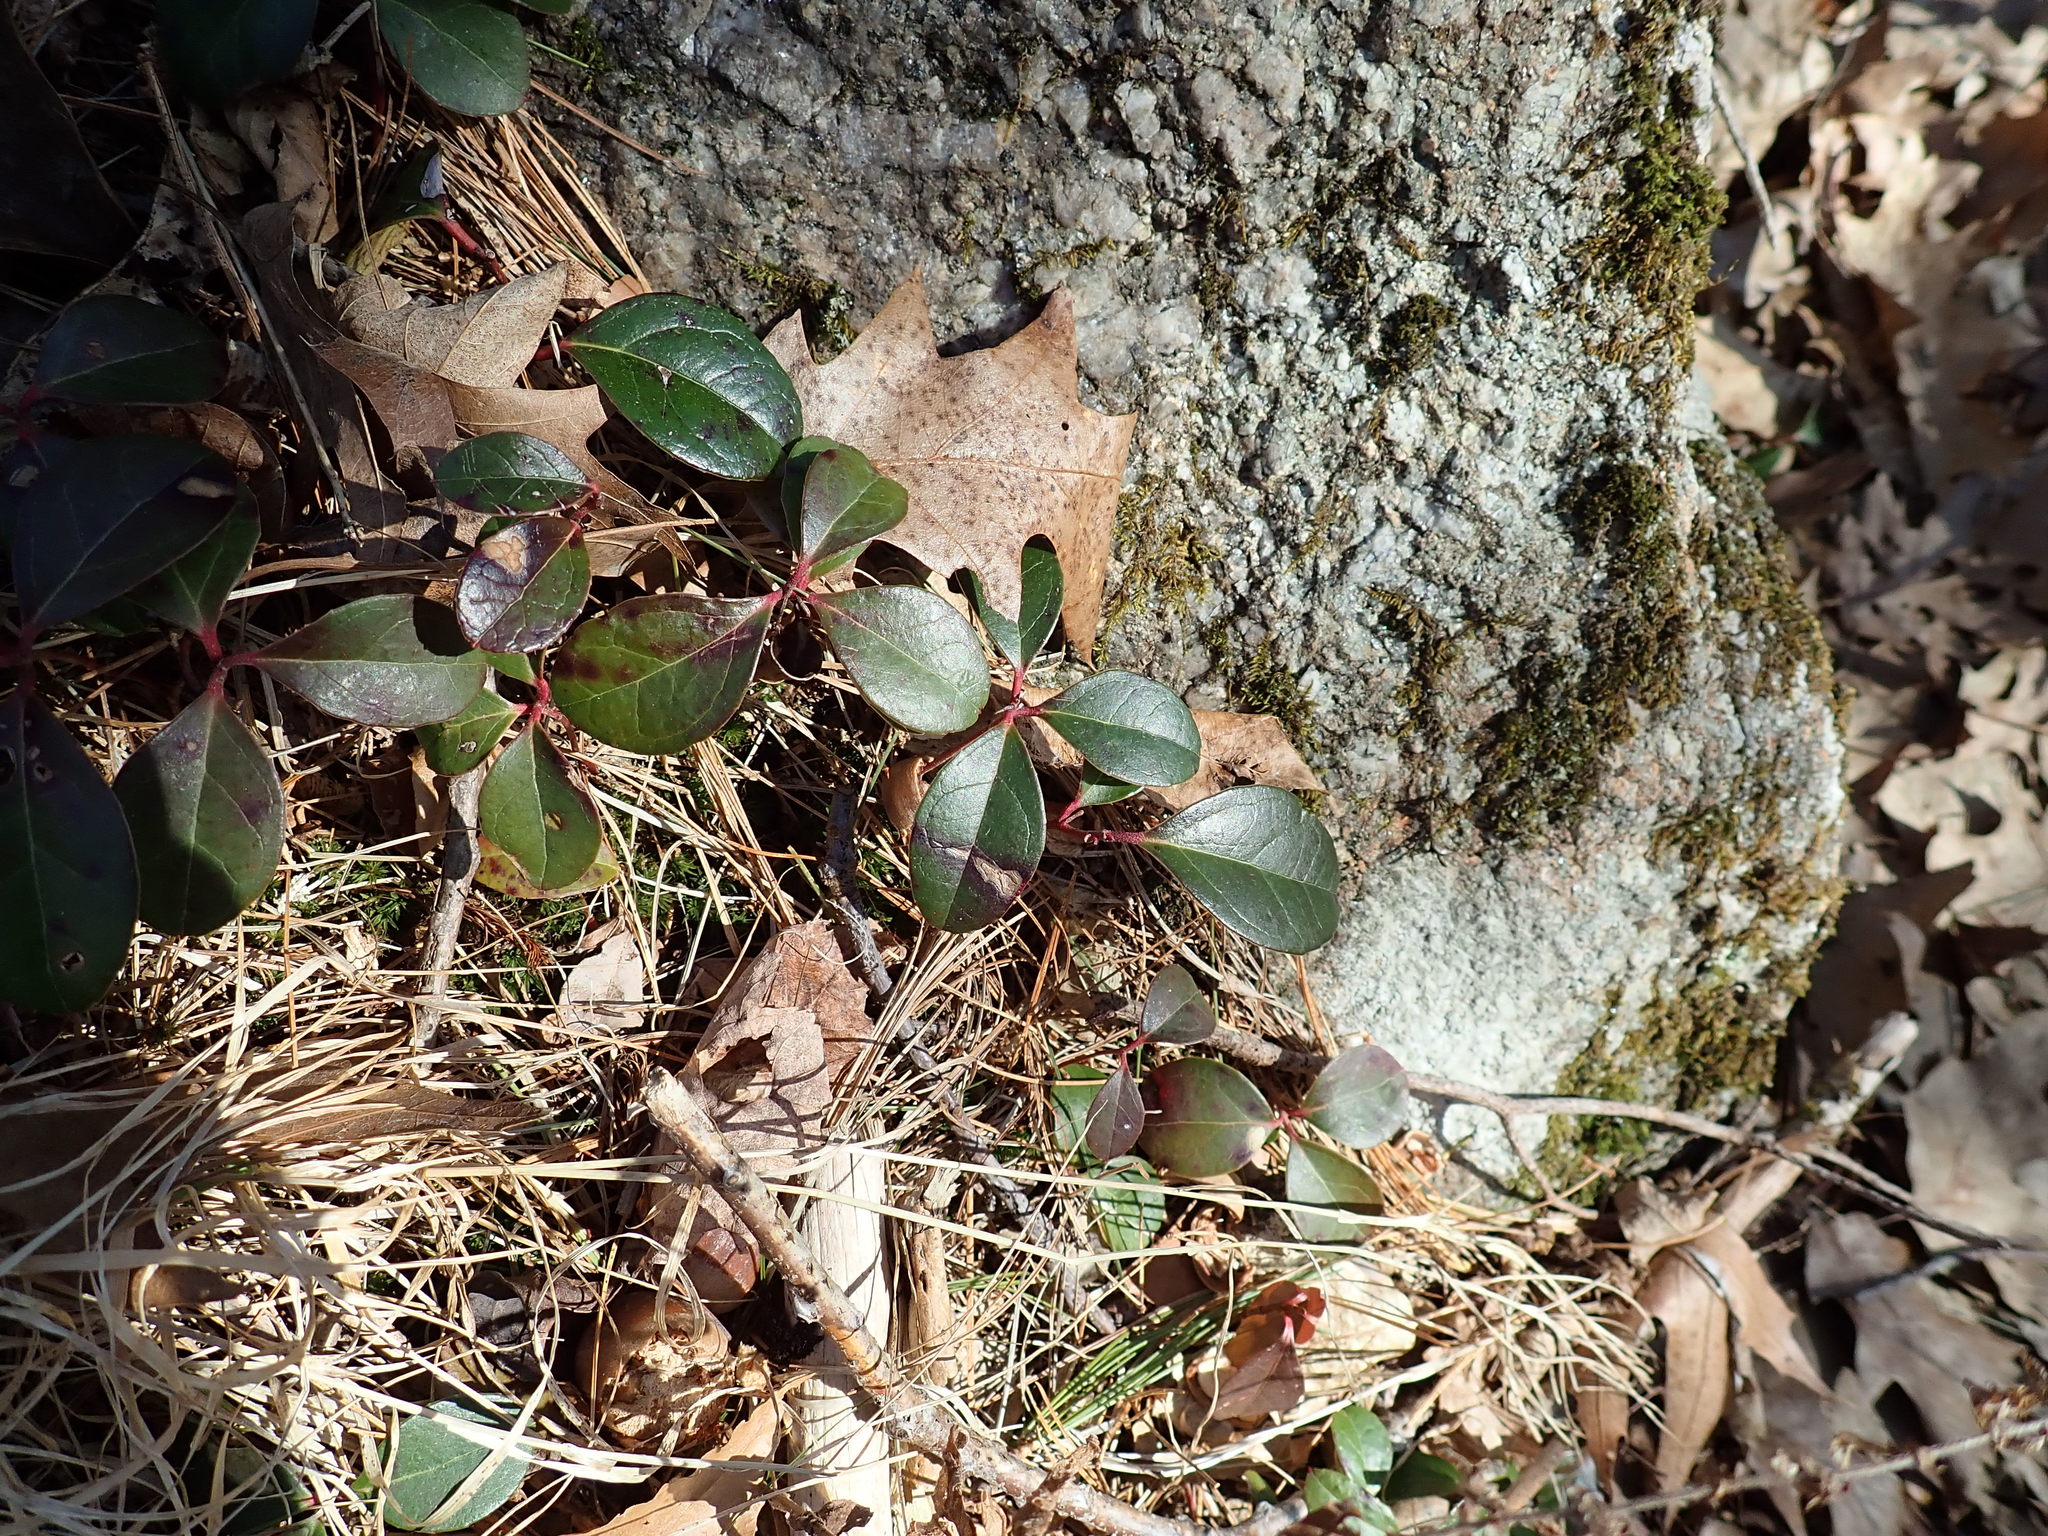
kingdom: Plantae
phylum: Tracheophyta
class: Magnoliopsida
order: Ericales
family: Ericaceae
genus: Gaultheria
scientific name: Gaultheria procumbens
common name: Checkerberry
